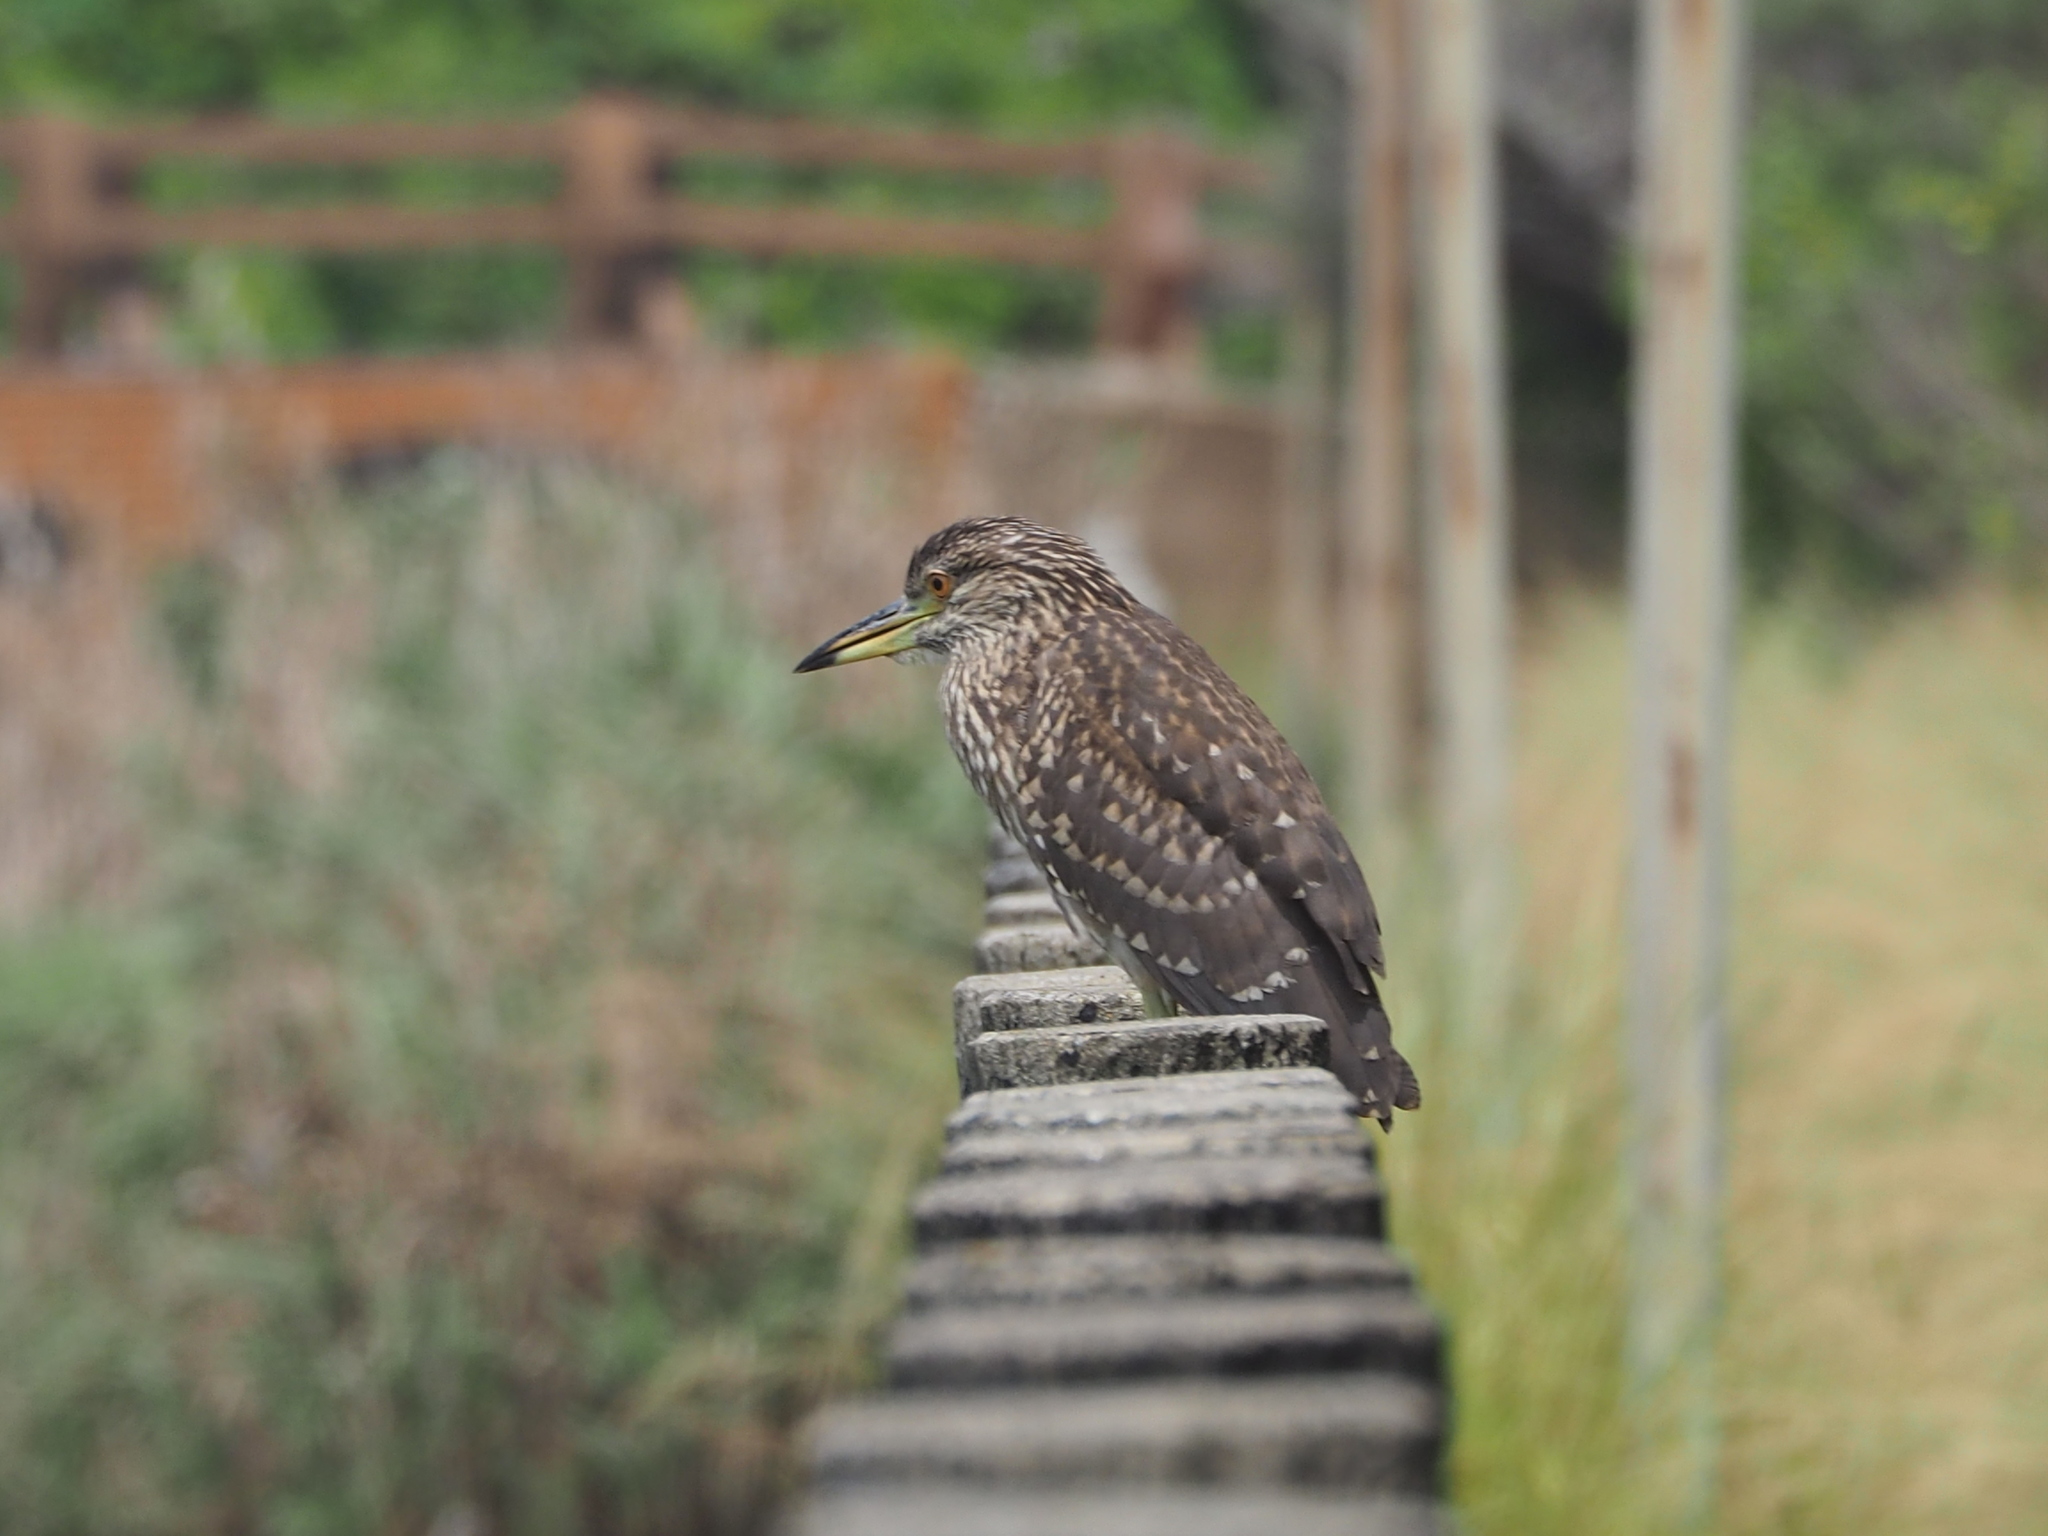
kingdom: Animalia
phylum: Chordata
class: Aves
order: Pelecaniformes
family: Ardeidae
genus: Nycticorax
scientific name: Nycticorax nycticorax
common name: Black-crowned night heron
